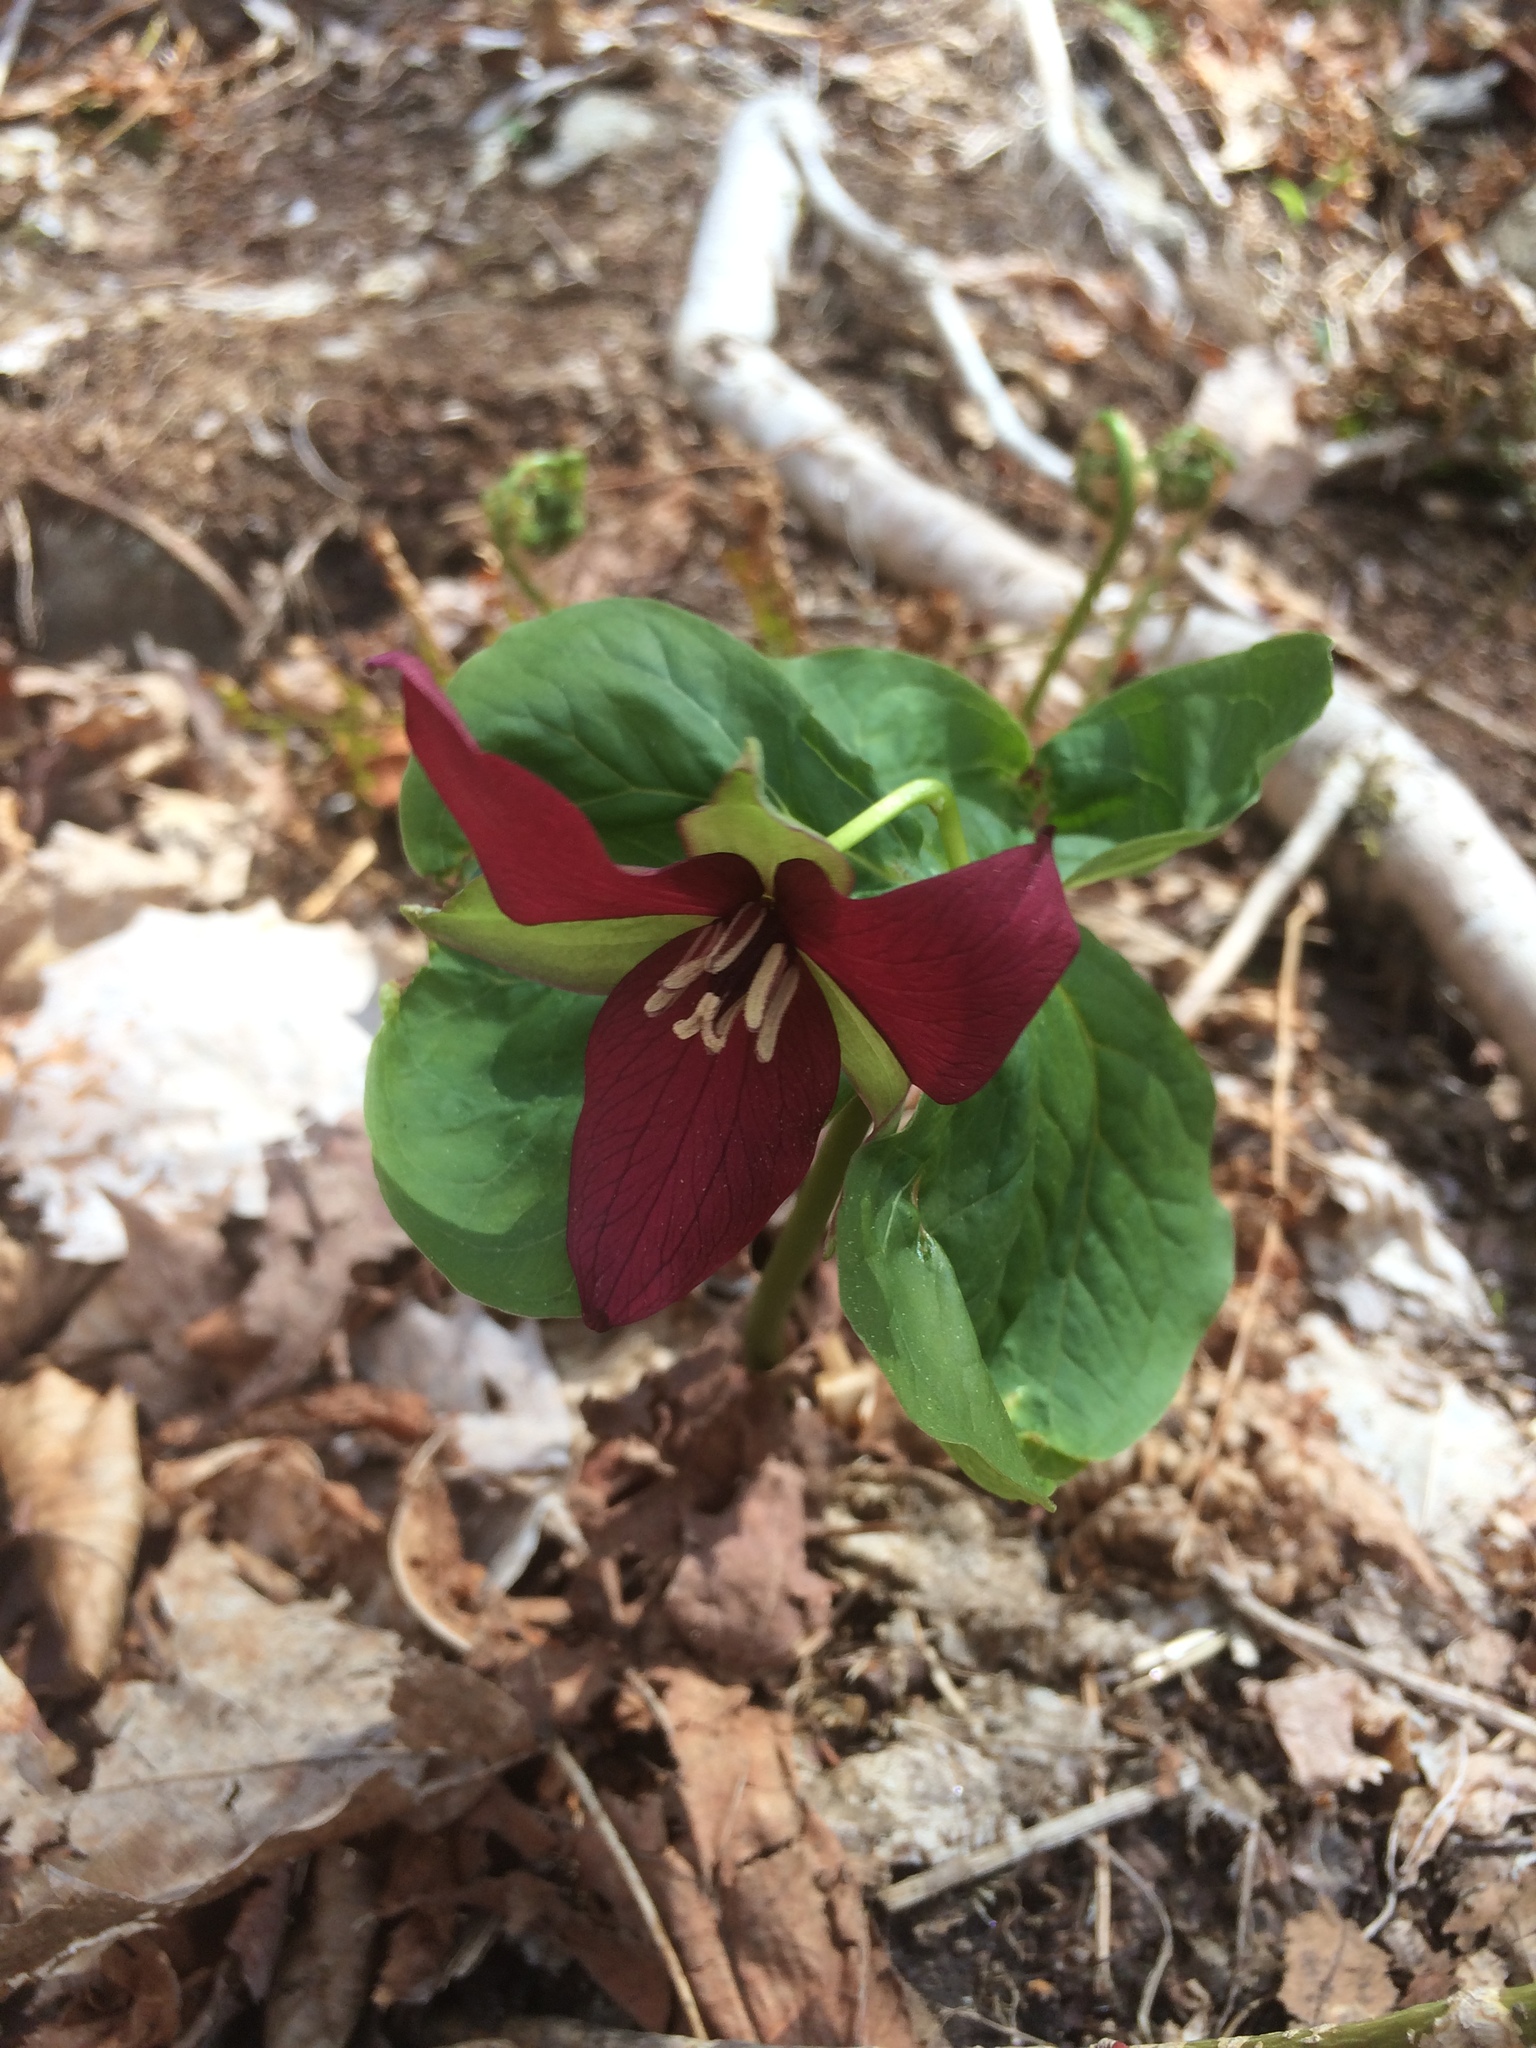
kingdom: Plantae
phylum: Tracheophyta
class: Liliopsida
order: Liliales
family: Melanthiaceae
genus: Trillium
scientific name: Trillium erectum
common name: Purple trillium
